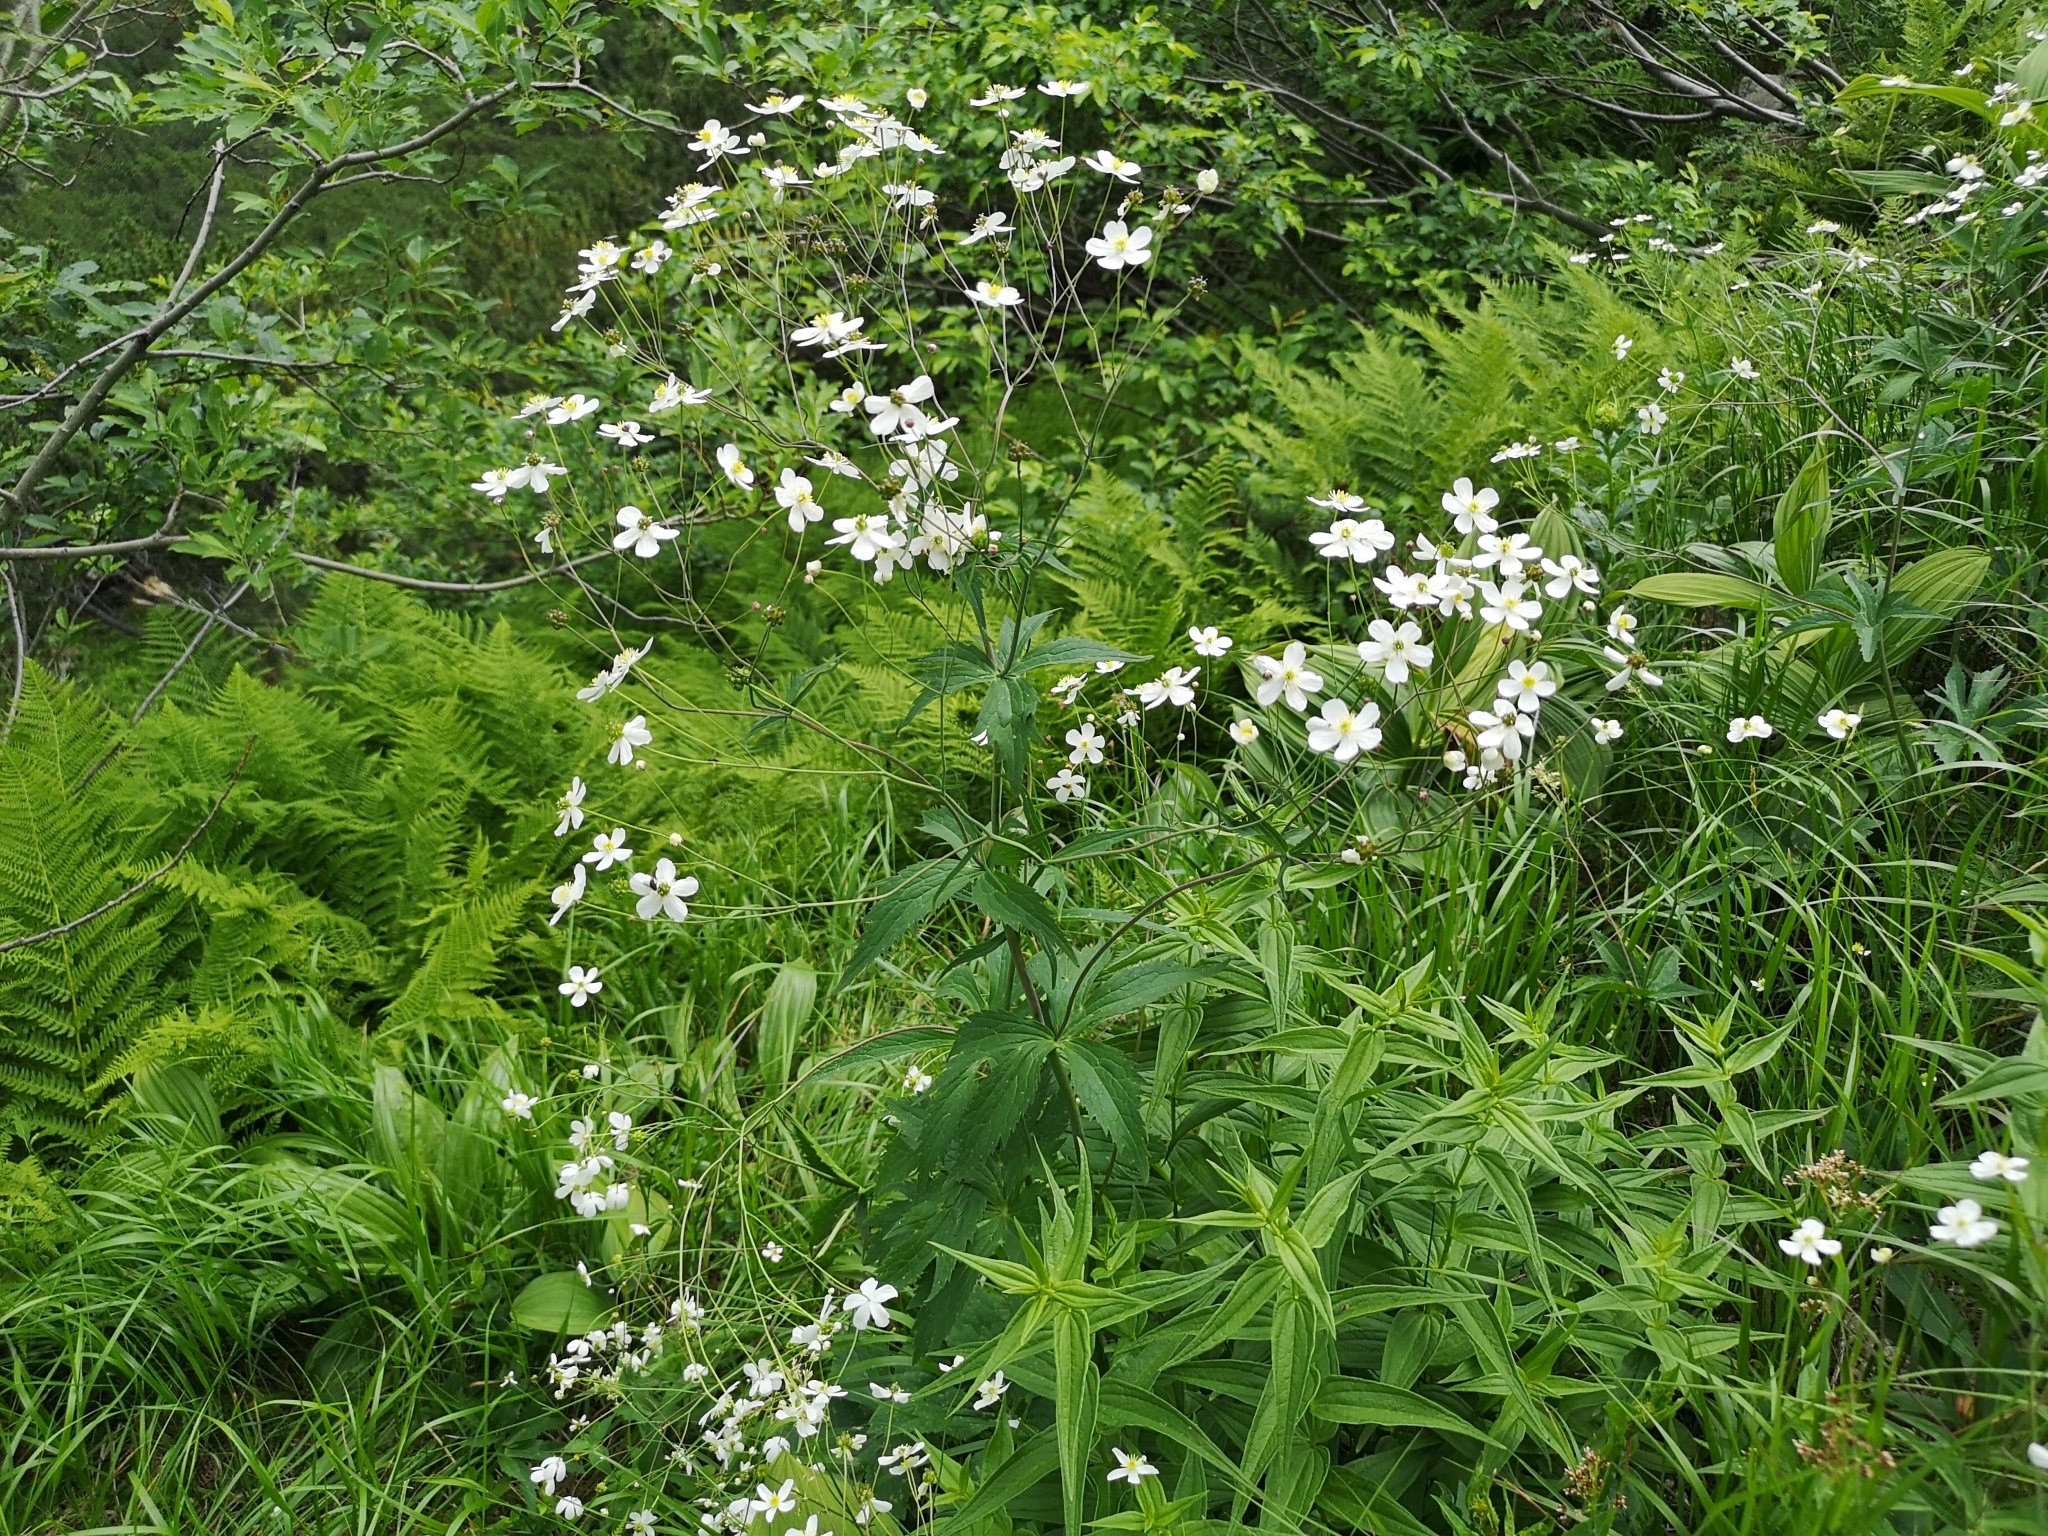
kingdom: Plantae
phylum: Tracheophyta
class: Magnoliopsida
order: Ranunculales
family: Ranunculaceae
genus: Ranunculus
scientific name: Ranunculus platanifolius
